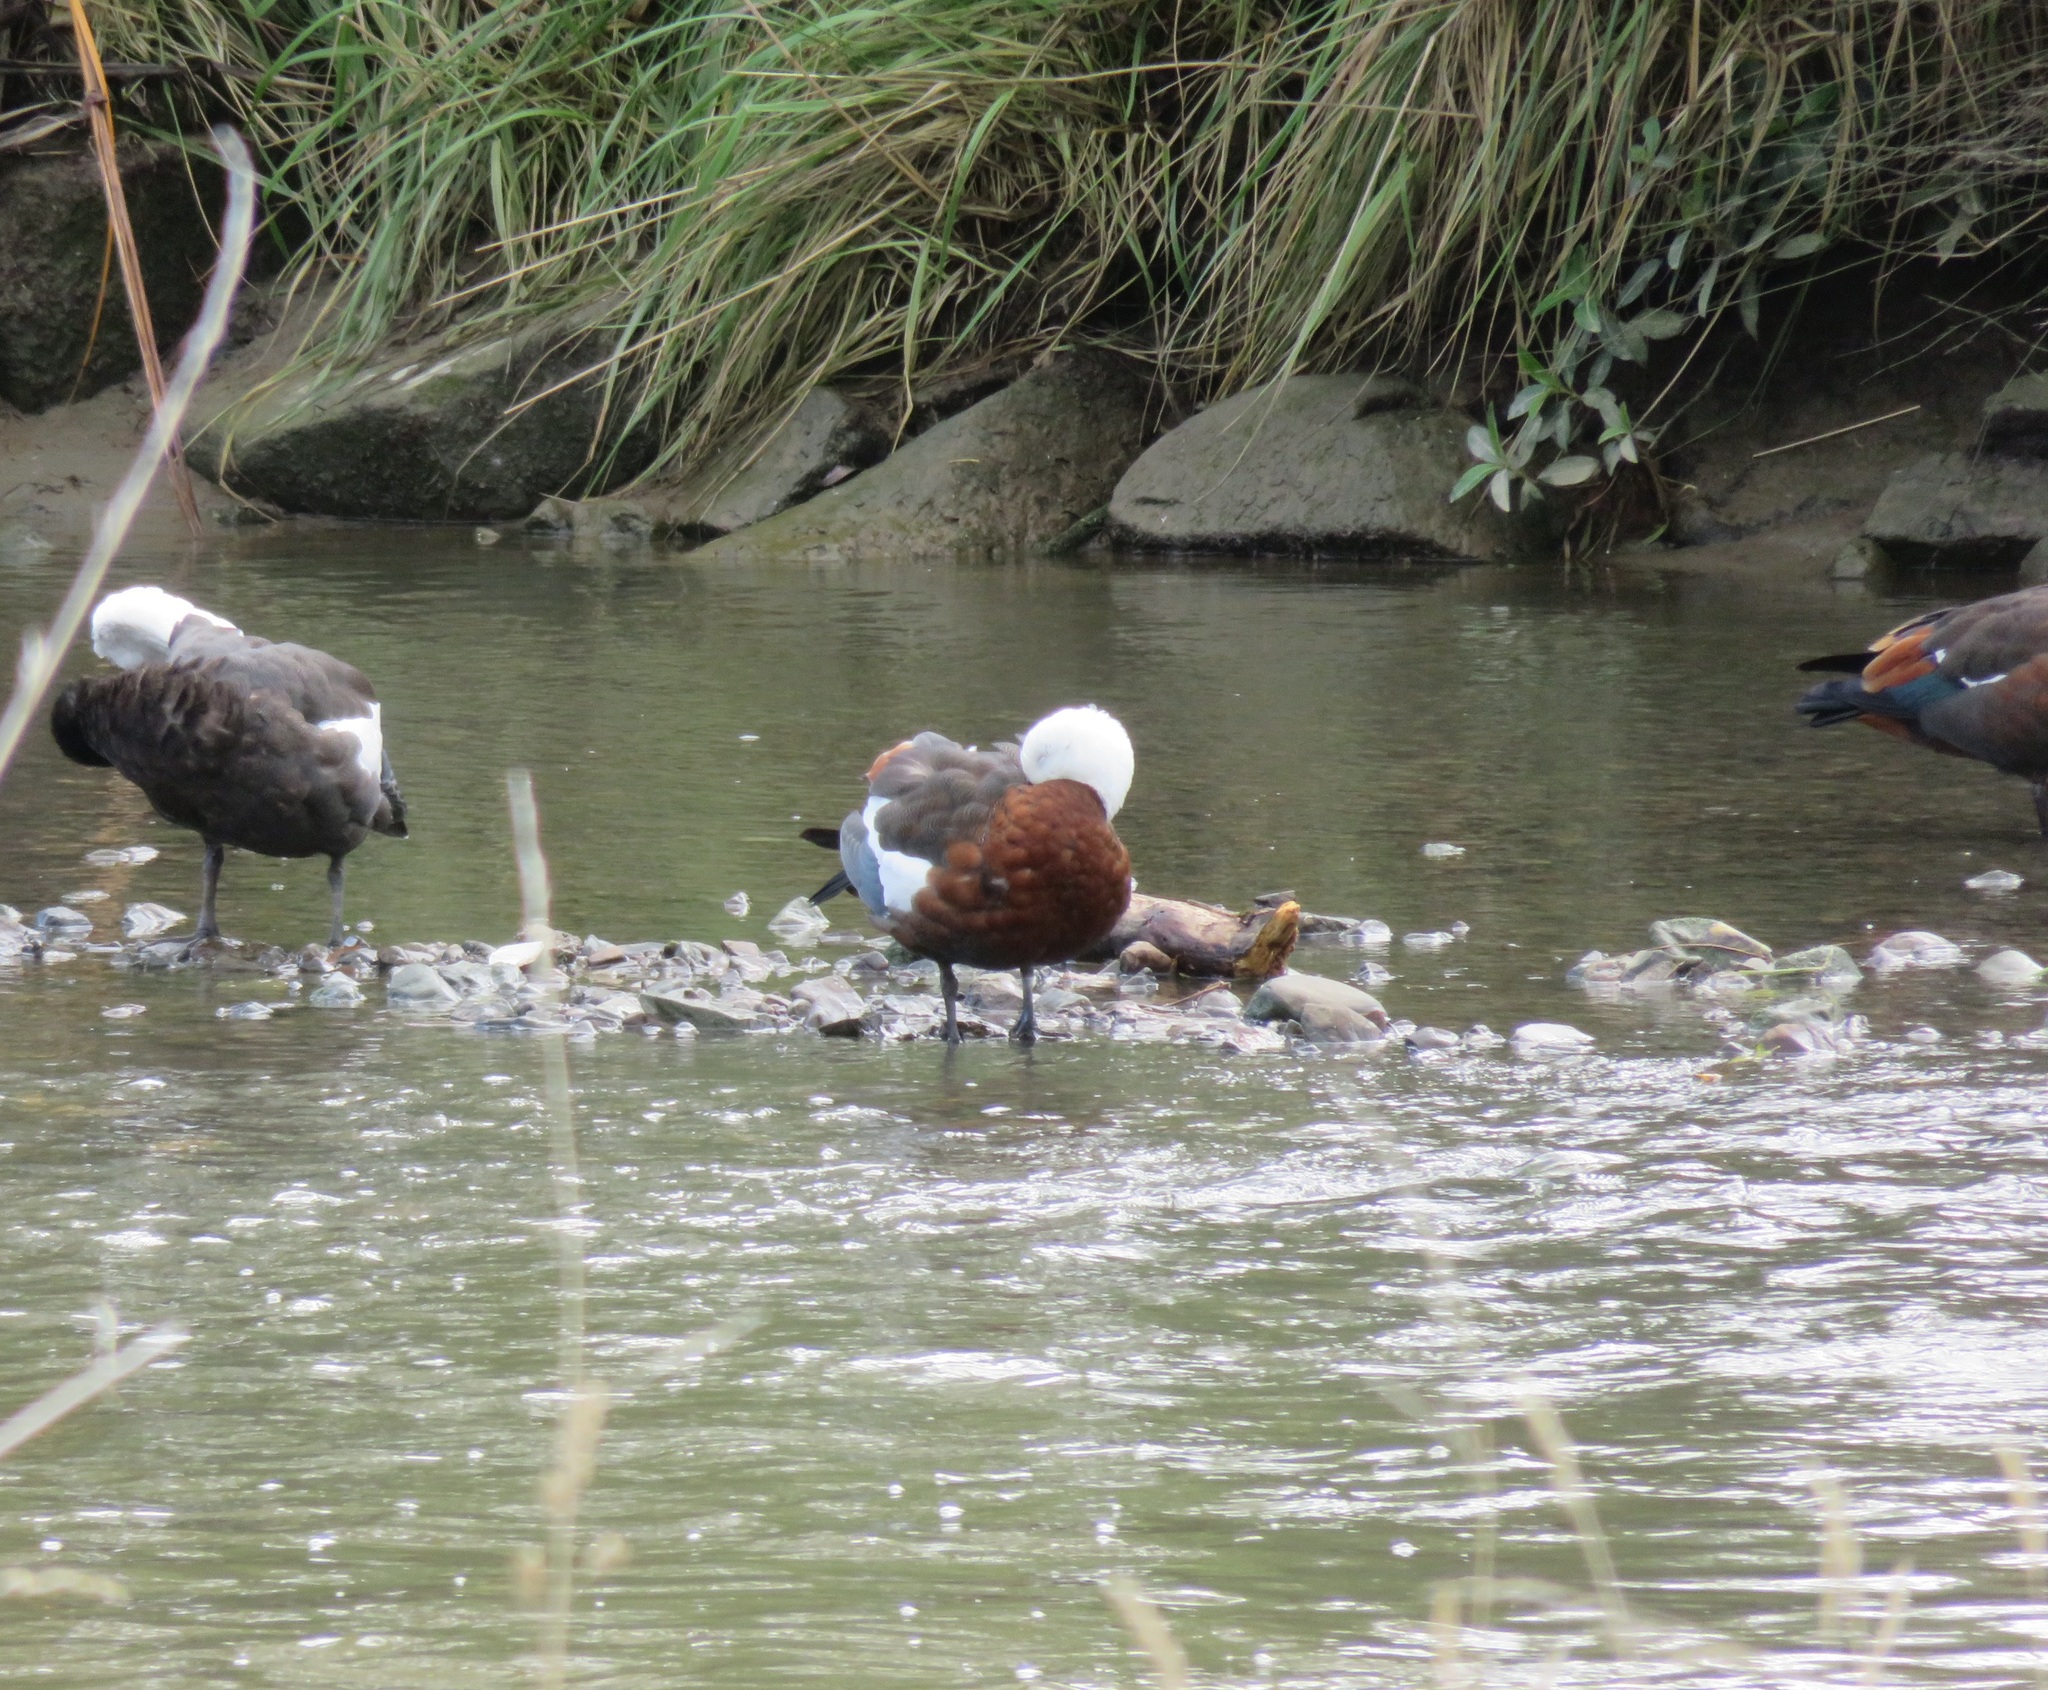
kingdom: Animalia
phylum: Chordata
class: Aves
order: Anseriformes
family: Anatidae
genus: Tadorna
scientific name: Tadorna variegata
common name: Paradise shelduck
